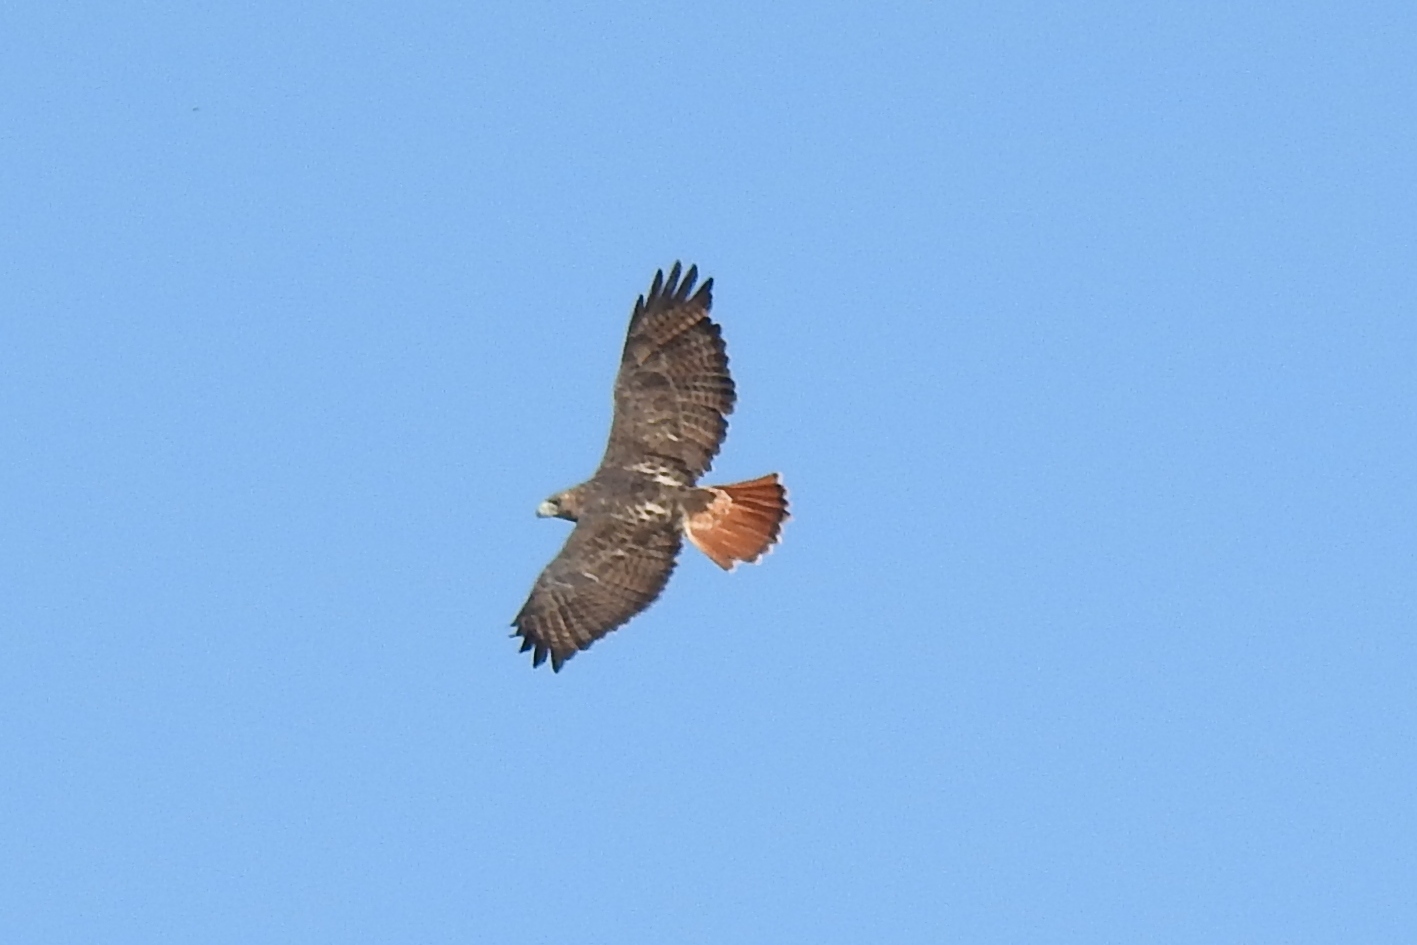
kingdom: Animalia
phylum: Chordata
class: Aves
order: Accipitriformes
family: Accipitridae
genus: Buteo
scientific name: Buteo jamaicensis
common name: Red-tailed hawk
